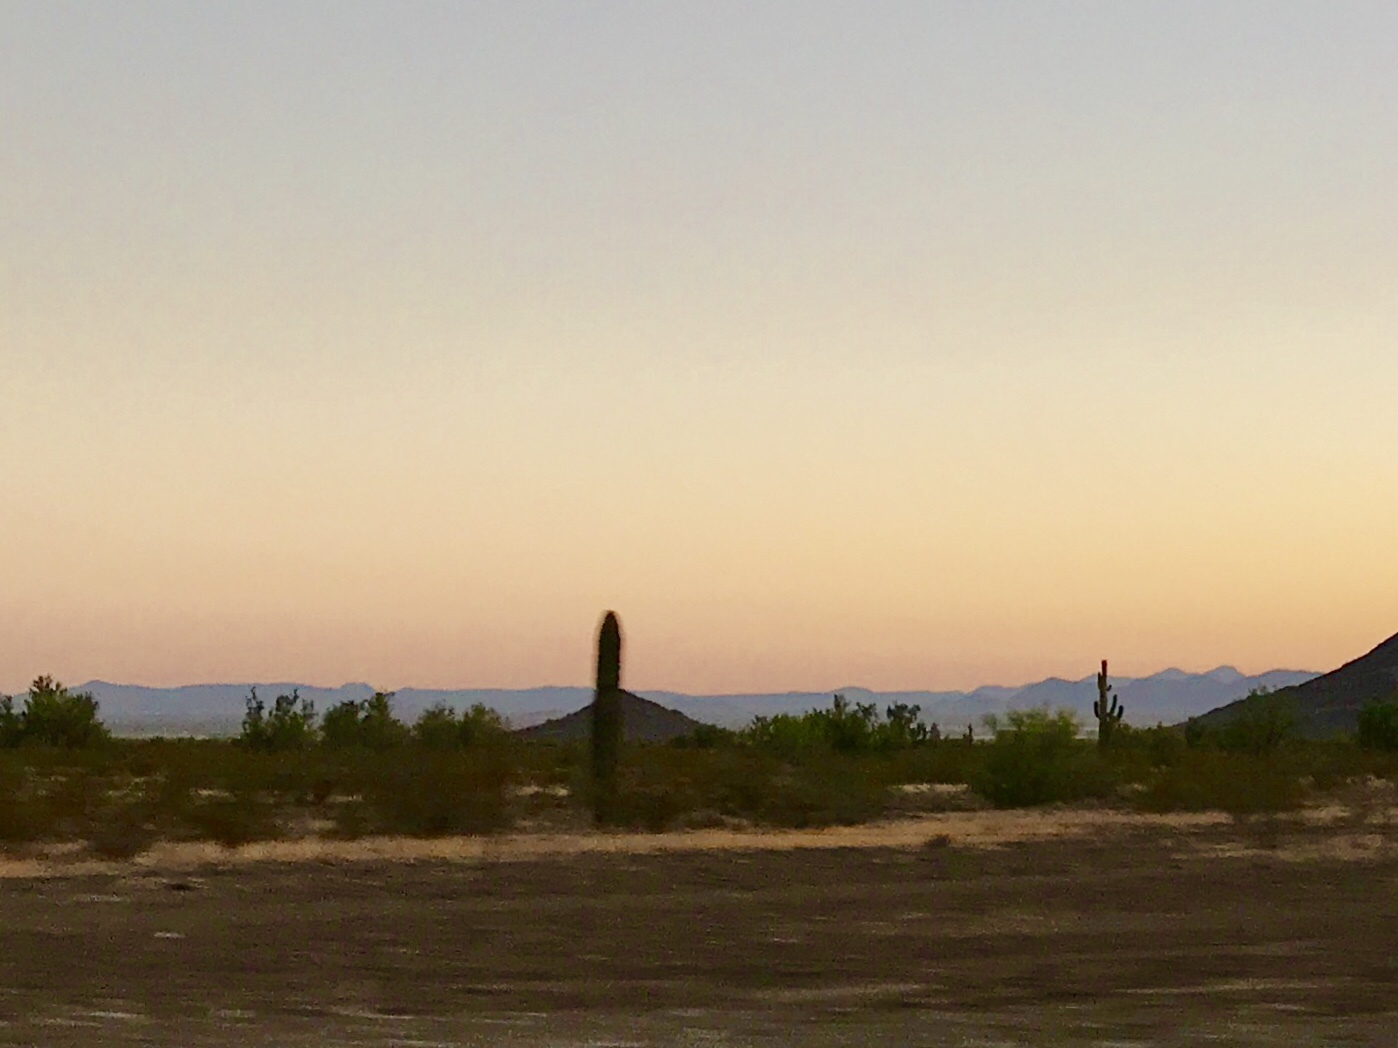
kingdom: Plantae
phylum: Tracheophyta
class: Magnoliopsida
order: Caryophyllales
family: Cactaceae
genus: Carnegiea
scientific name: Carnegiea gigantea
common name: Saguaro
